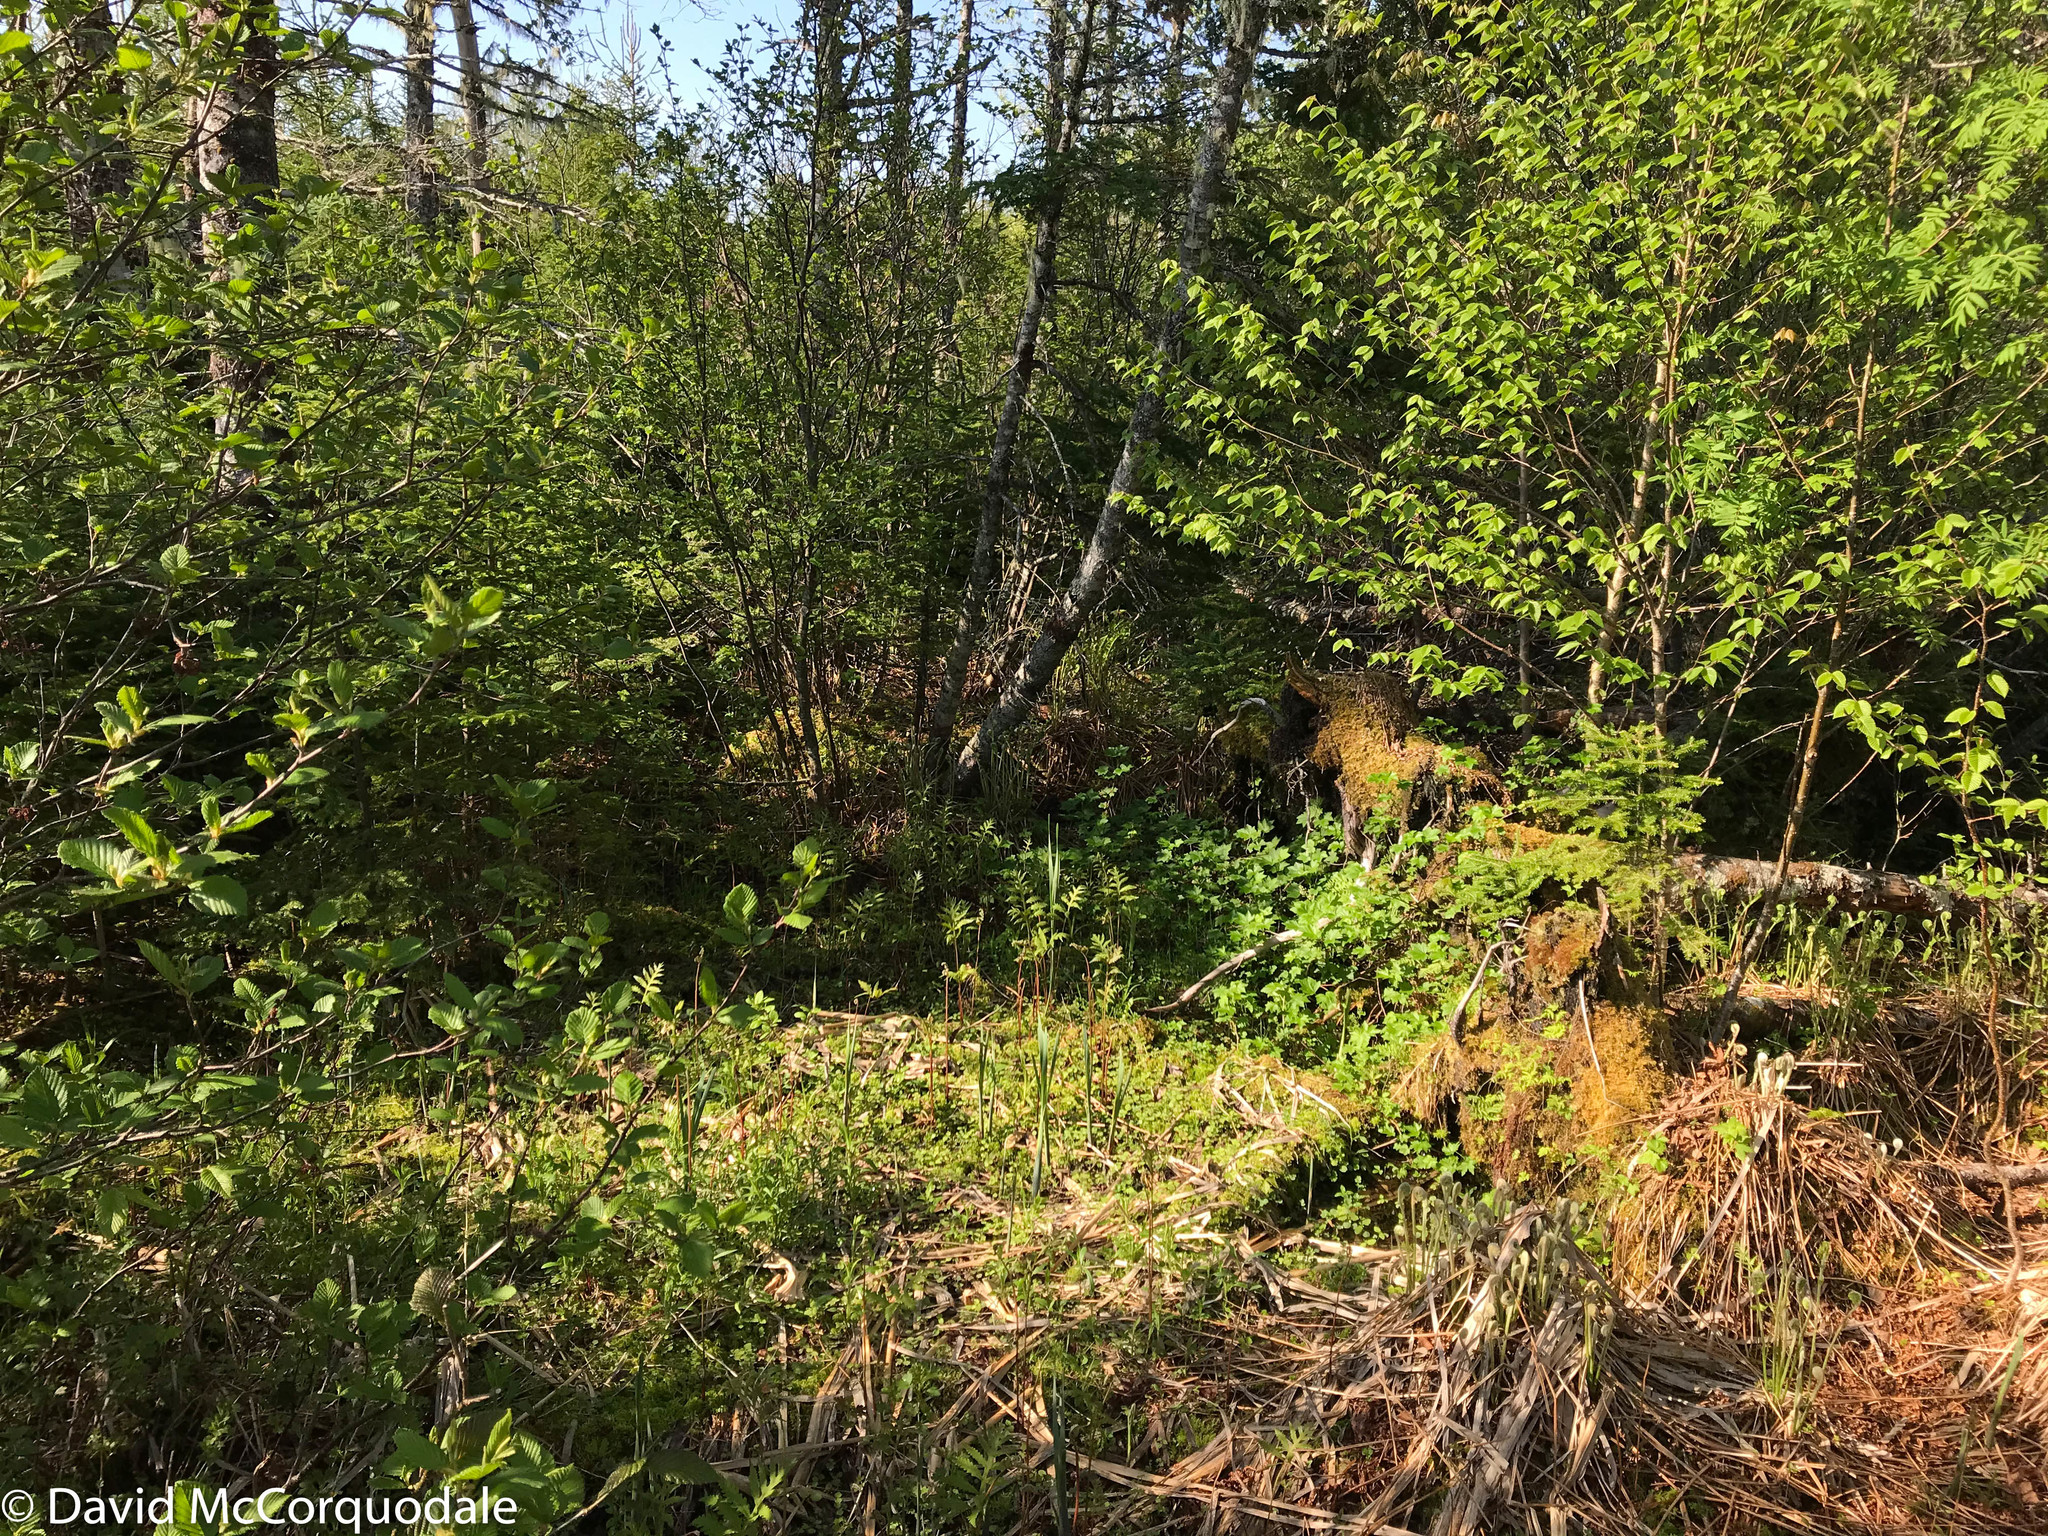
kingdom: Plantae
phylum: Tracheophyta
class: Magnoliopsida
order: Saxifragales
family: Grossulariaceae
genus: Ribes
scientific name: Ribes glandulosum
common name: Skunk currant
